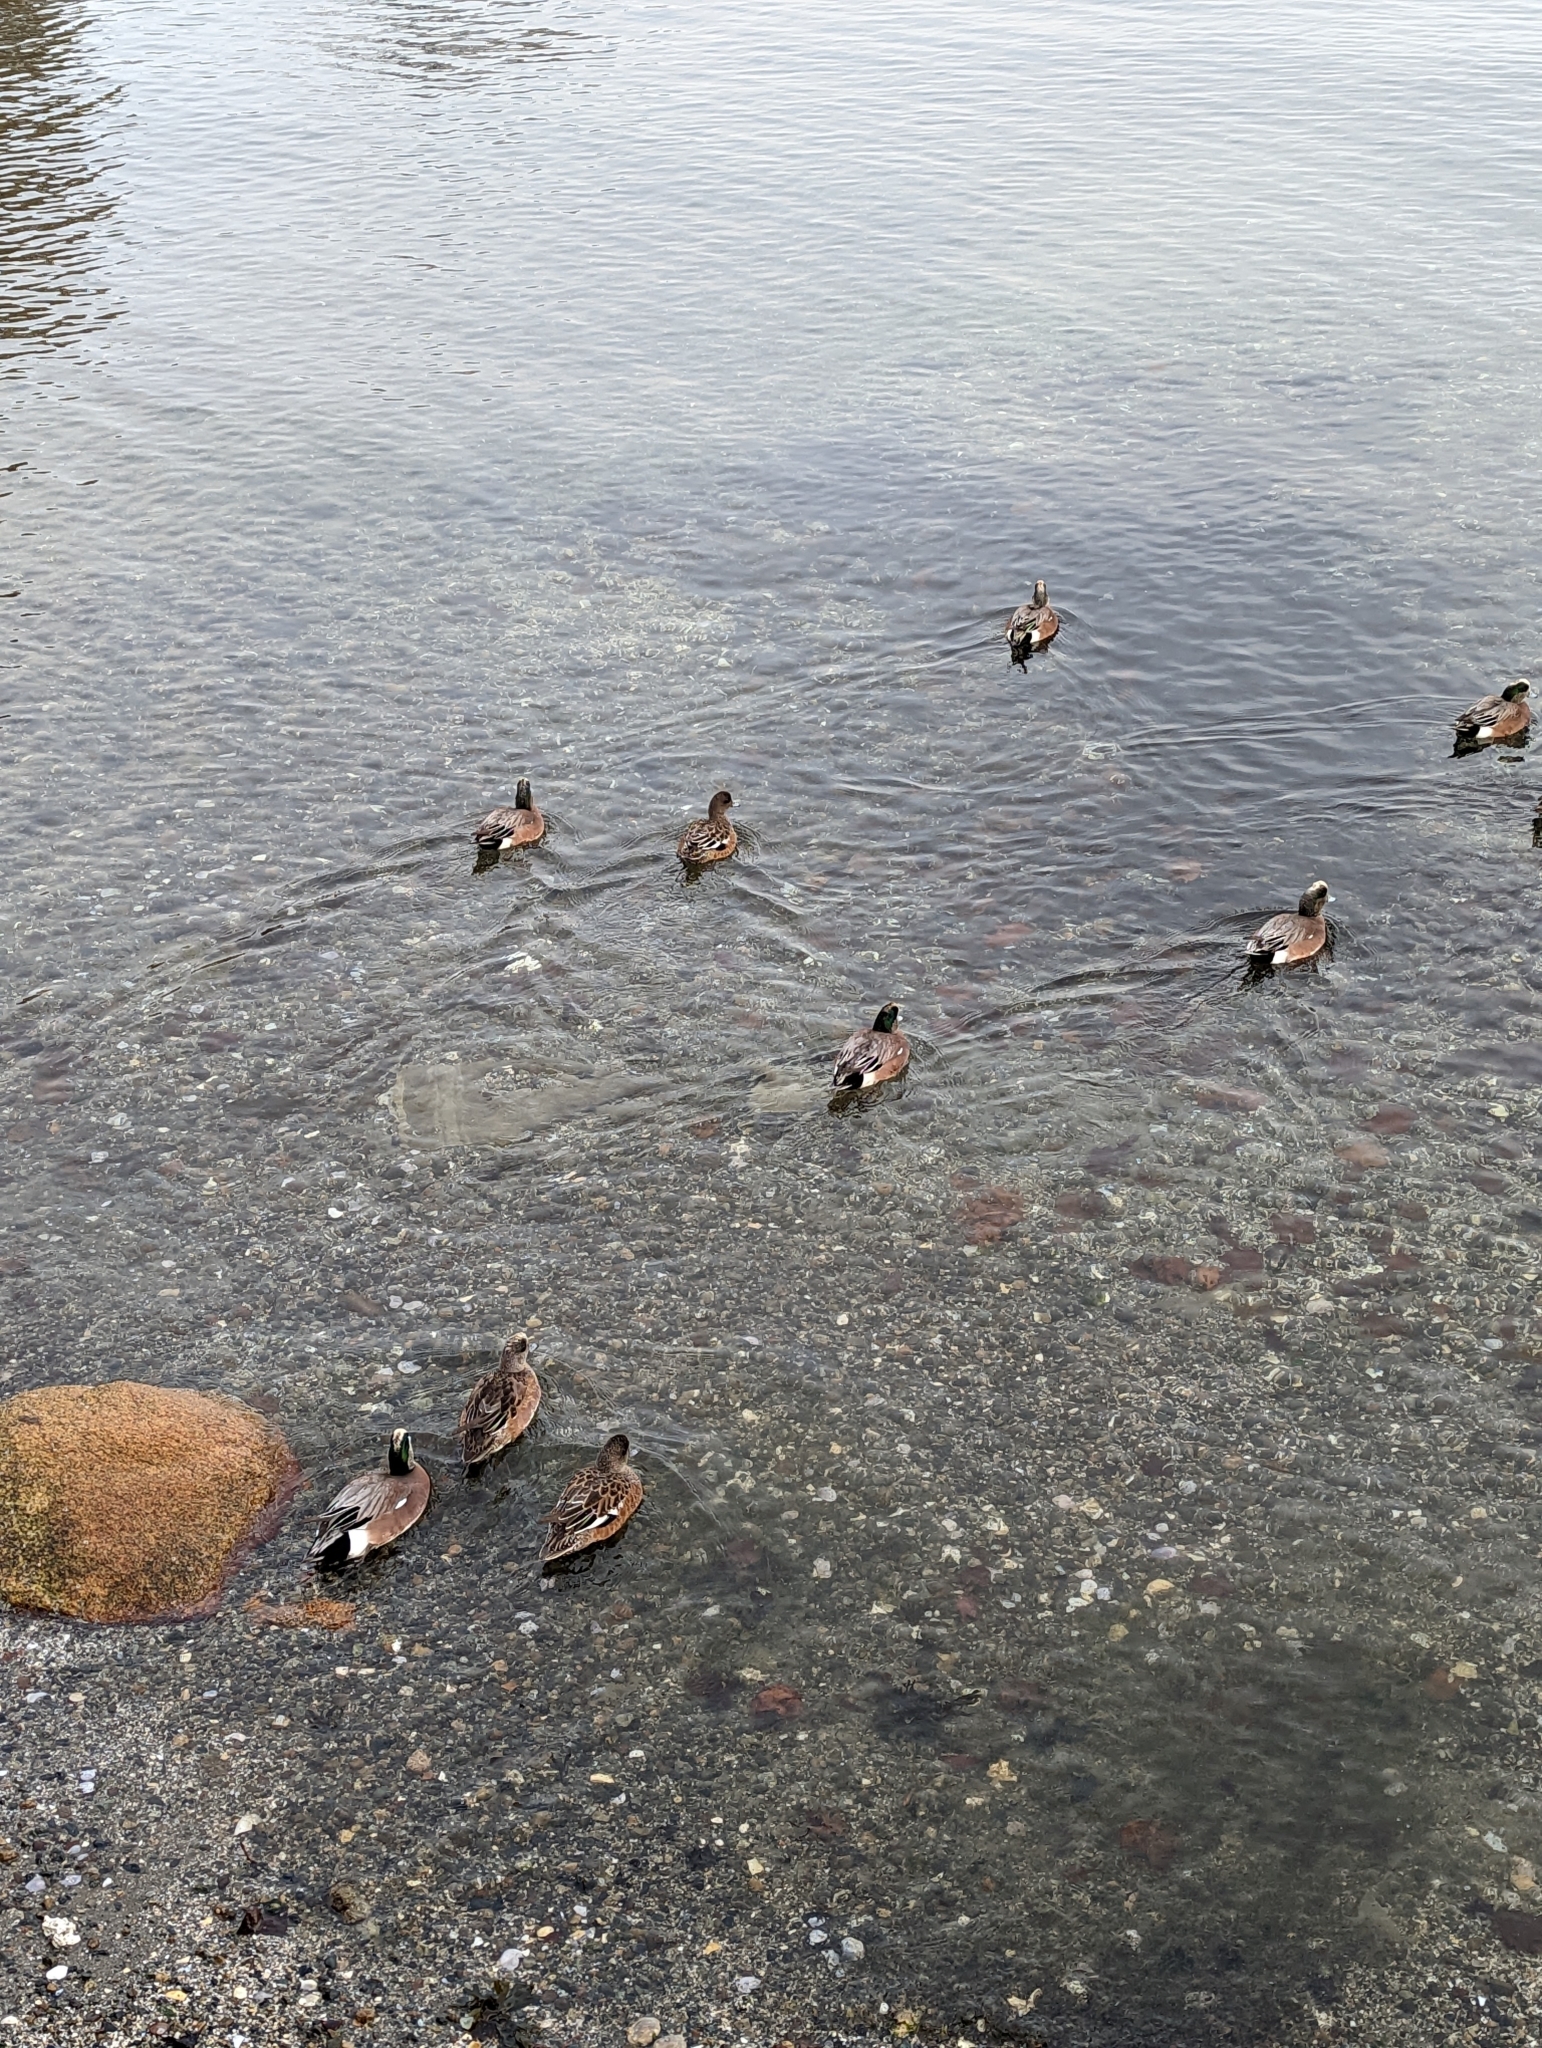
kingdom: Animalia
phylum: Chordata
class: Aves
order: Anseriformes
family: Anatidae
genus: Mareca
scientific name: Mareca americana
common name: American wigeon
